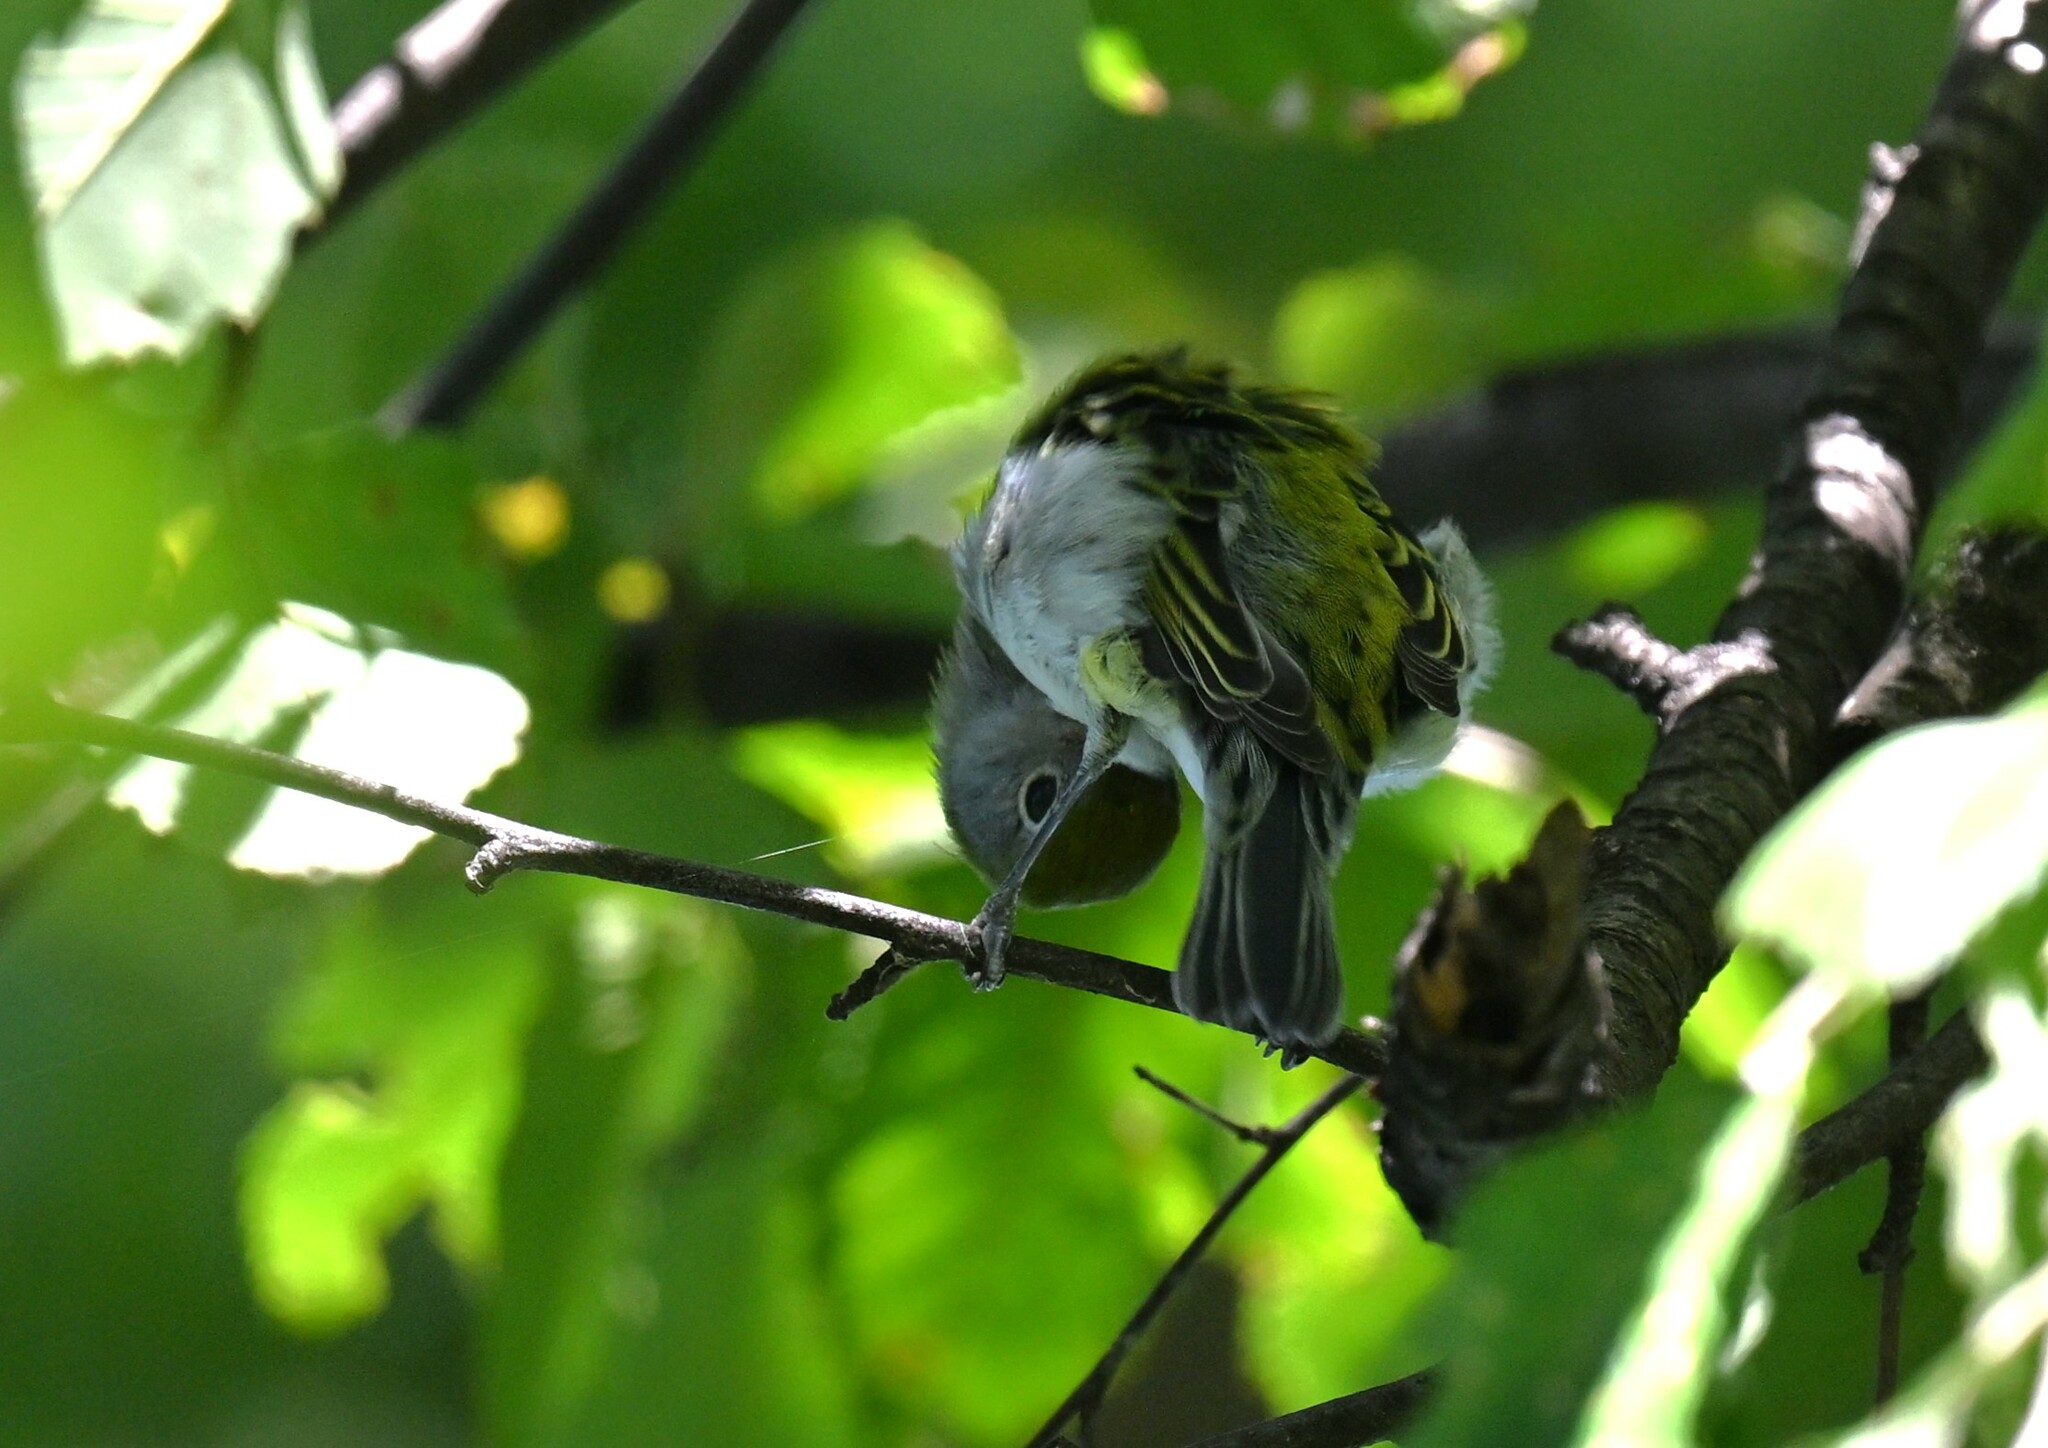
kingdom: Animalia
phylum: Chordata
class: Aves
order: Passeriformes
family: Parulidae
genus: Setophaga
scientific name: Setophaga pensylvanica
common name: Chestnut-sided warbler
